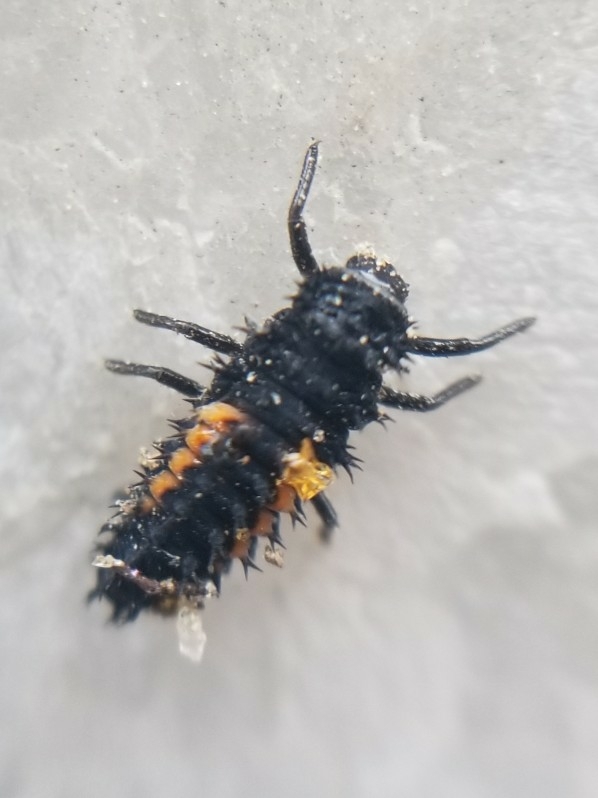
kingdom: Animalia
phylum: Arthropoda
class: Insecta
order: Coleoptera
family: Coccinellidae
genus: Harmonia
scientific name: Harmonia axyridis
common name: Harlequin ladybird
